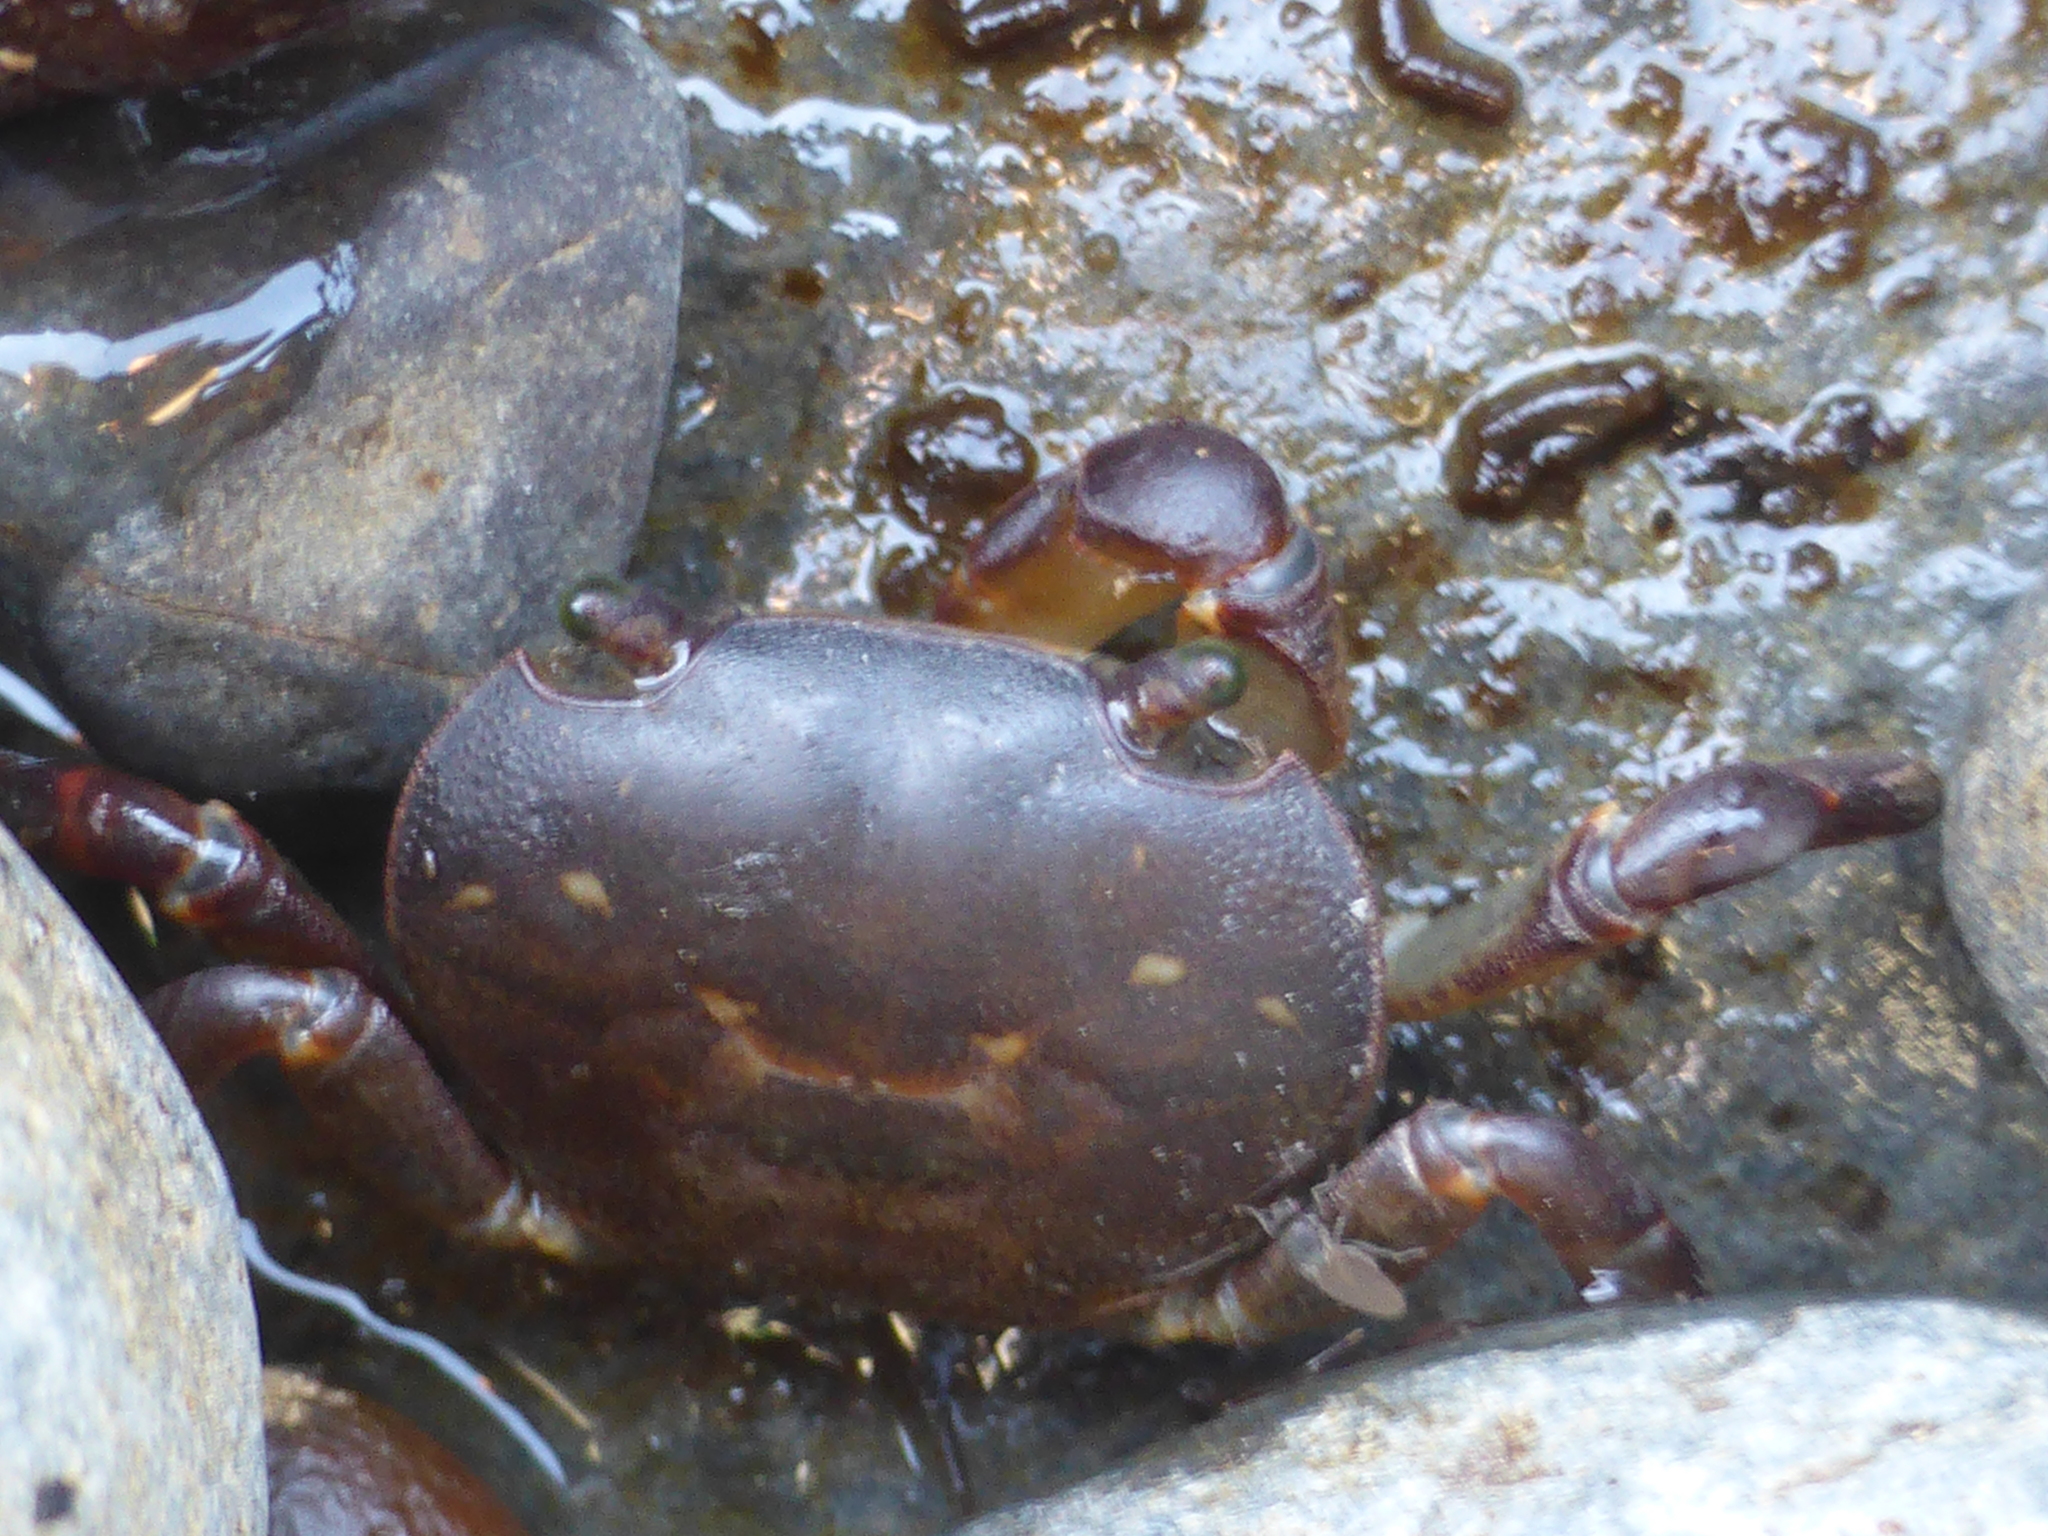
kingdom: Animalia
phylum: Arthropoda
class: Malacostraca
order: Decapoda
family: Varunidae
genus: Cyclograpsus
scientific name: Cyclograpsus lavauxi
